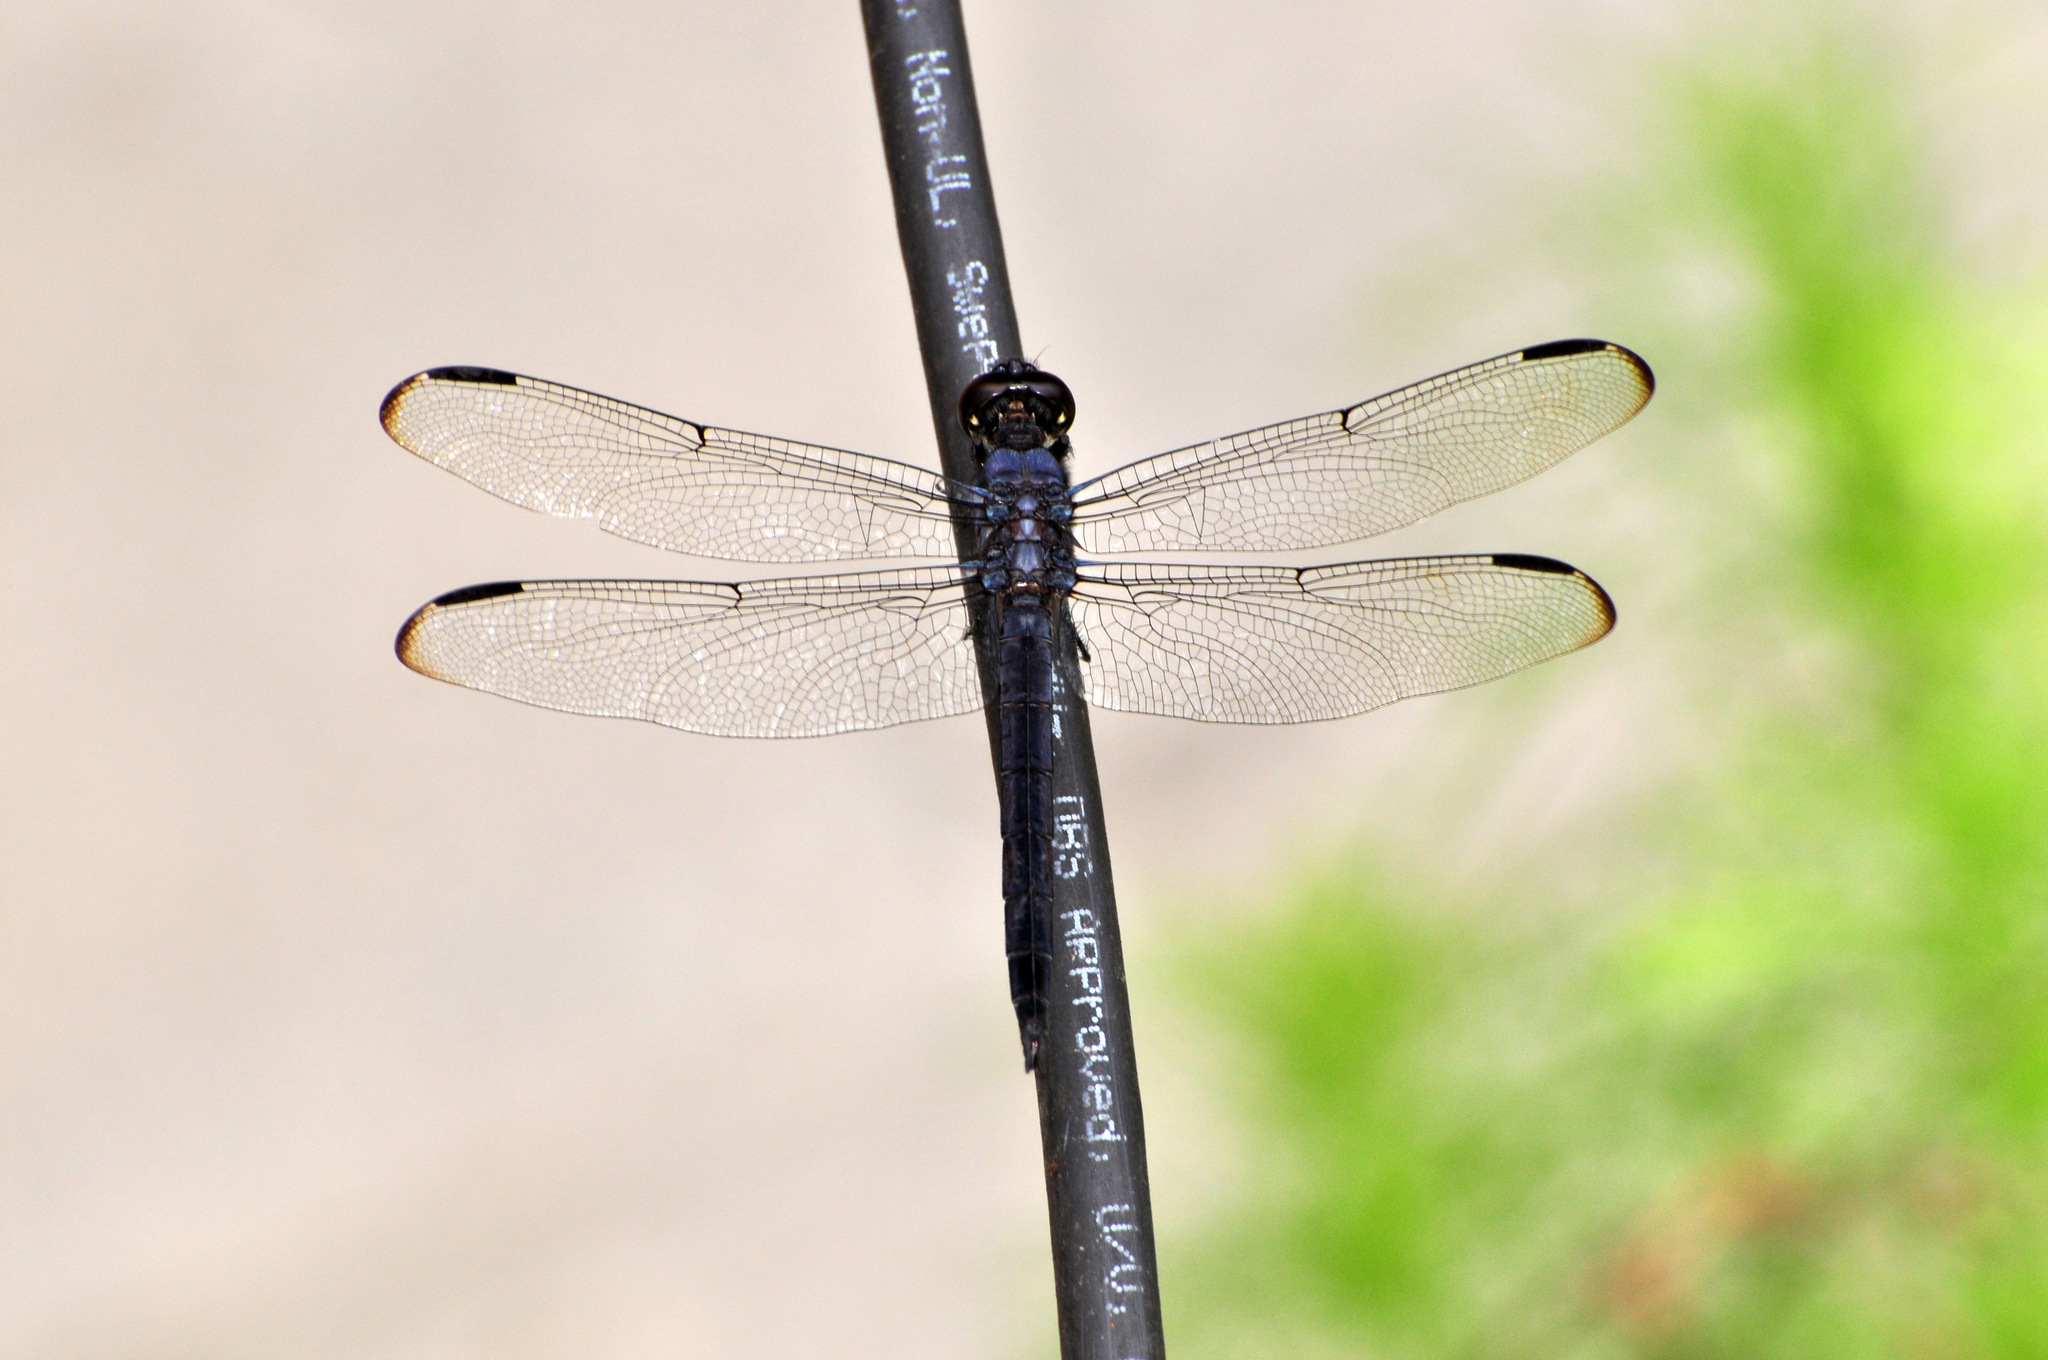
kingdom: Animalia
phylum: Arthropoda
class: Insecta
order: Odonata
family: Libellulidae
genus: Libellula
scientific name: Libellula incesta
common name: Slaty skimmer
